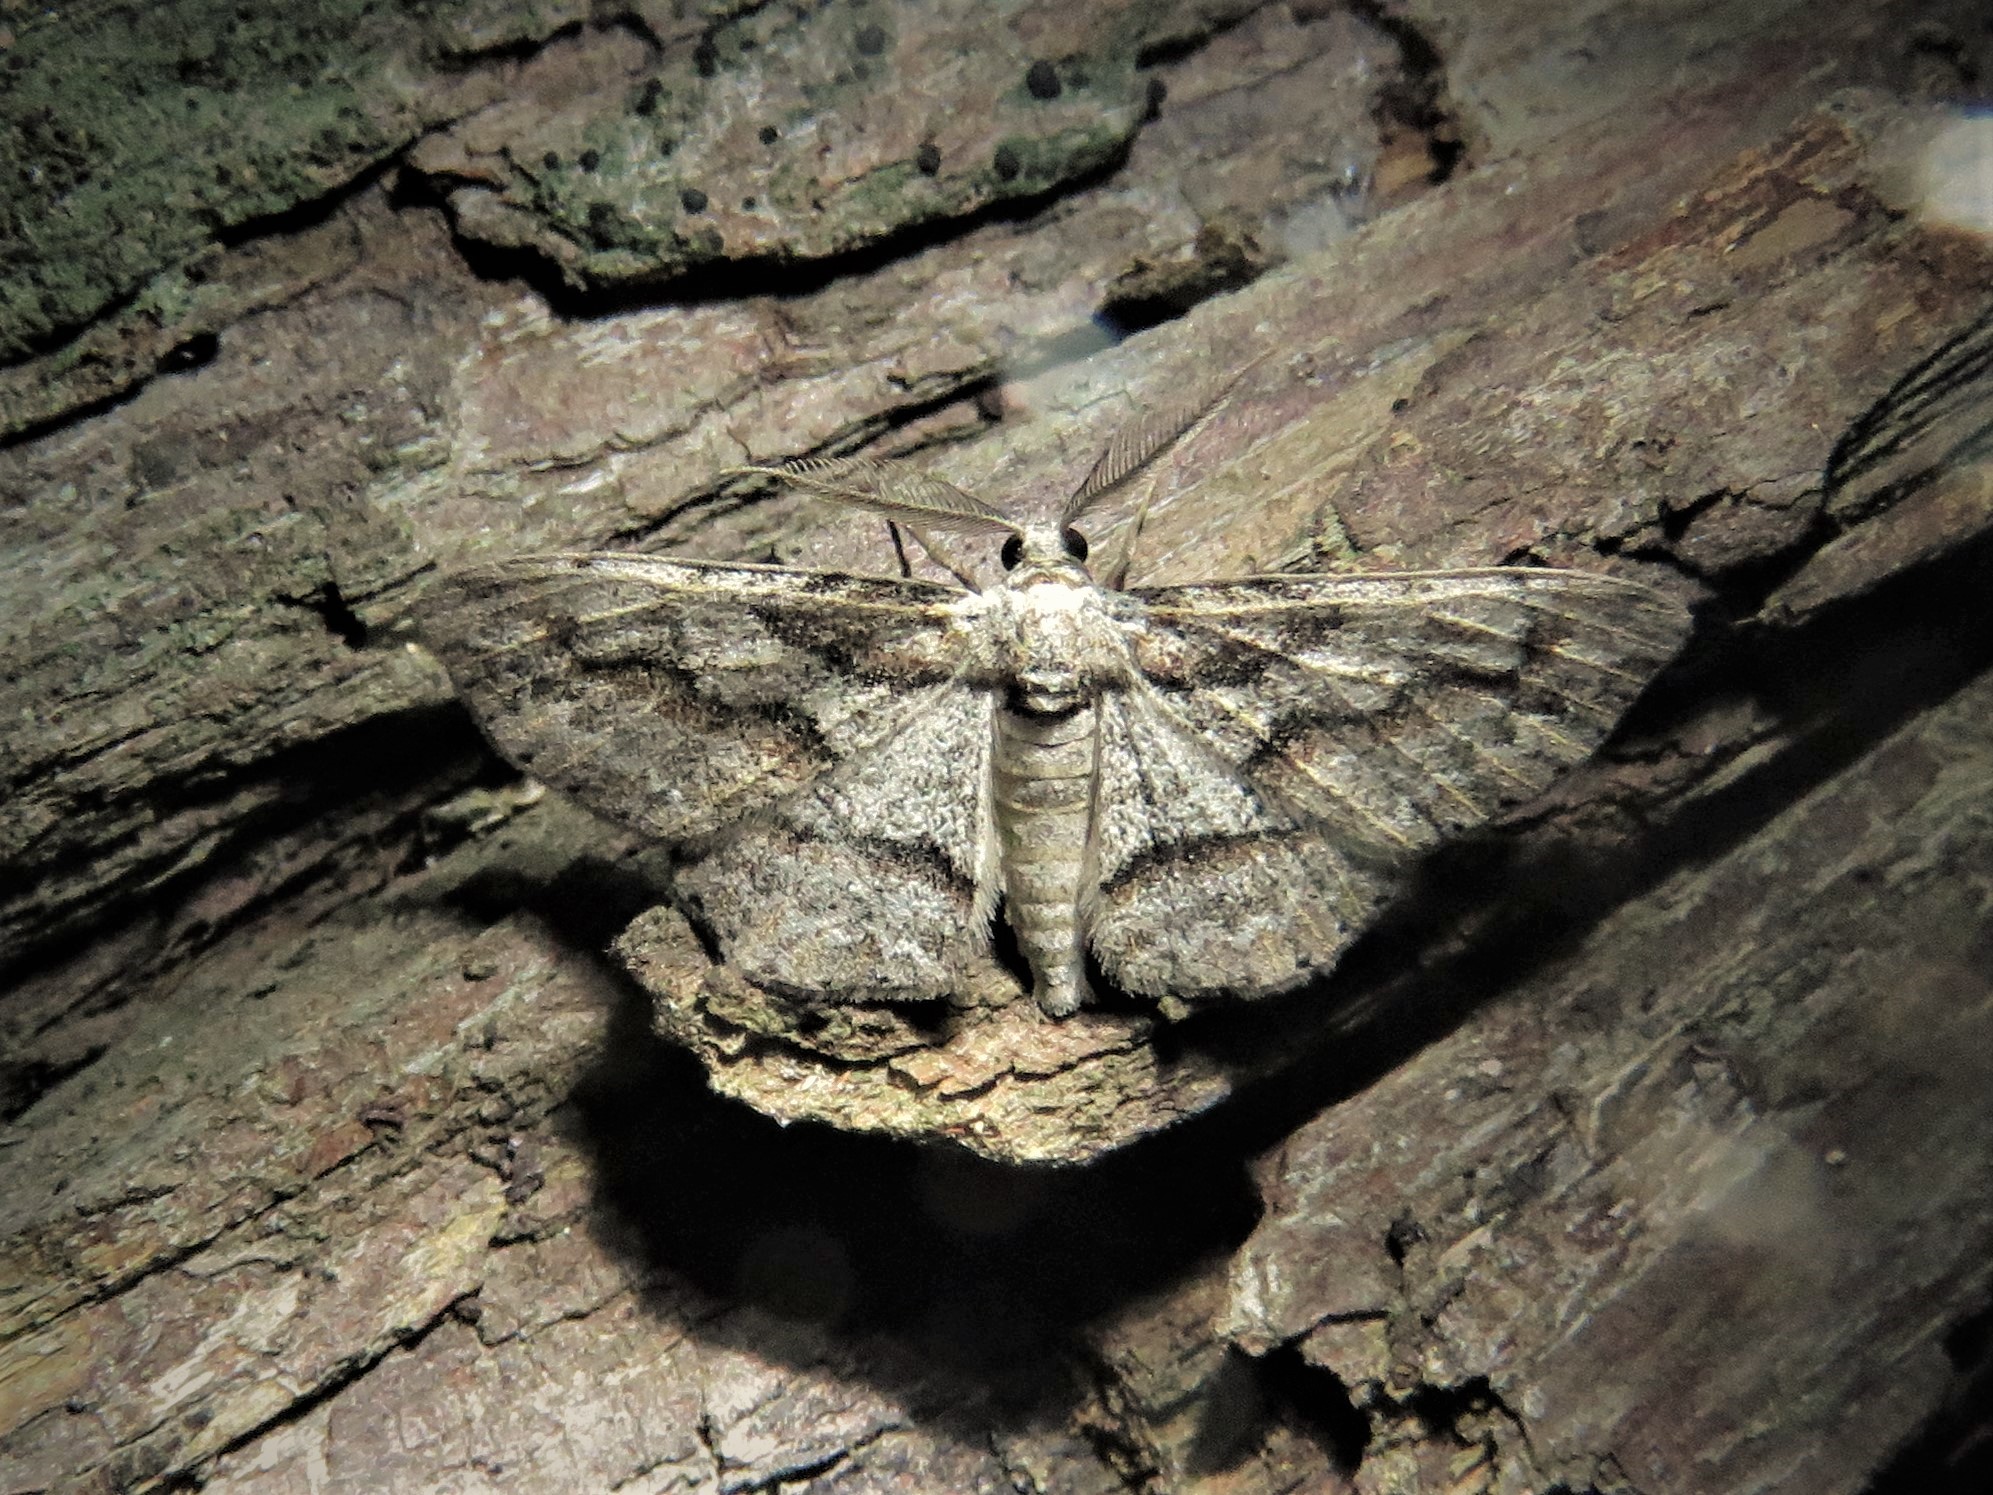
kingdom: Animalia
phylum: Arthropoda
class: Insecta
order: Lepidoptera
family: Geometridae
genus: Anavitrinella
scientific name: Anavitrinella atristrigaria
